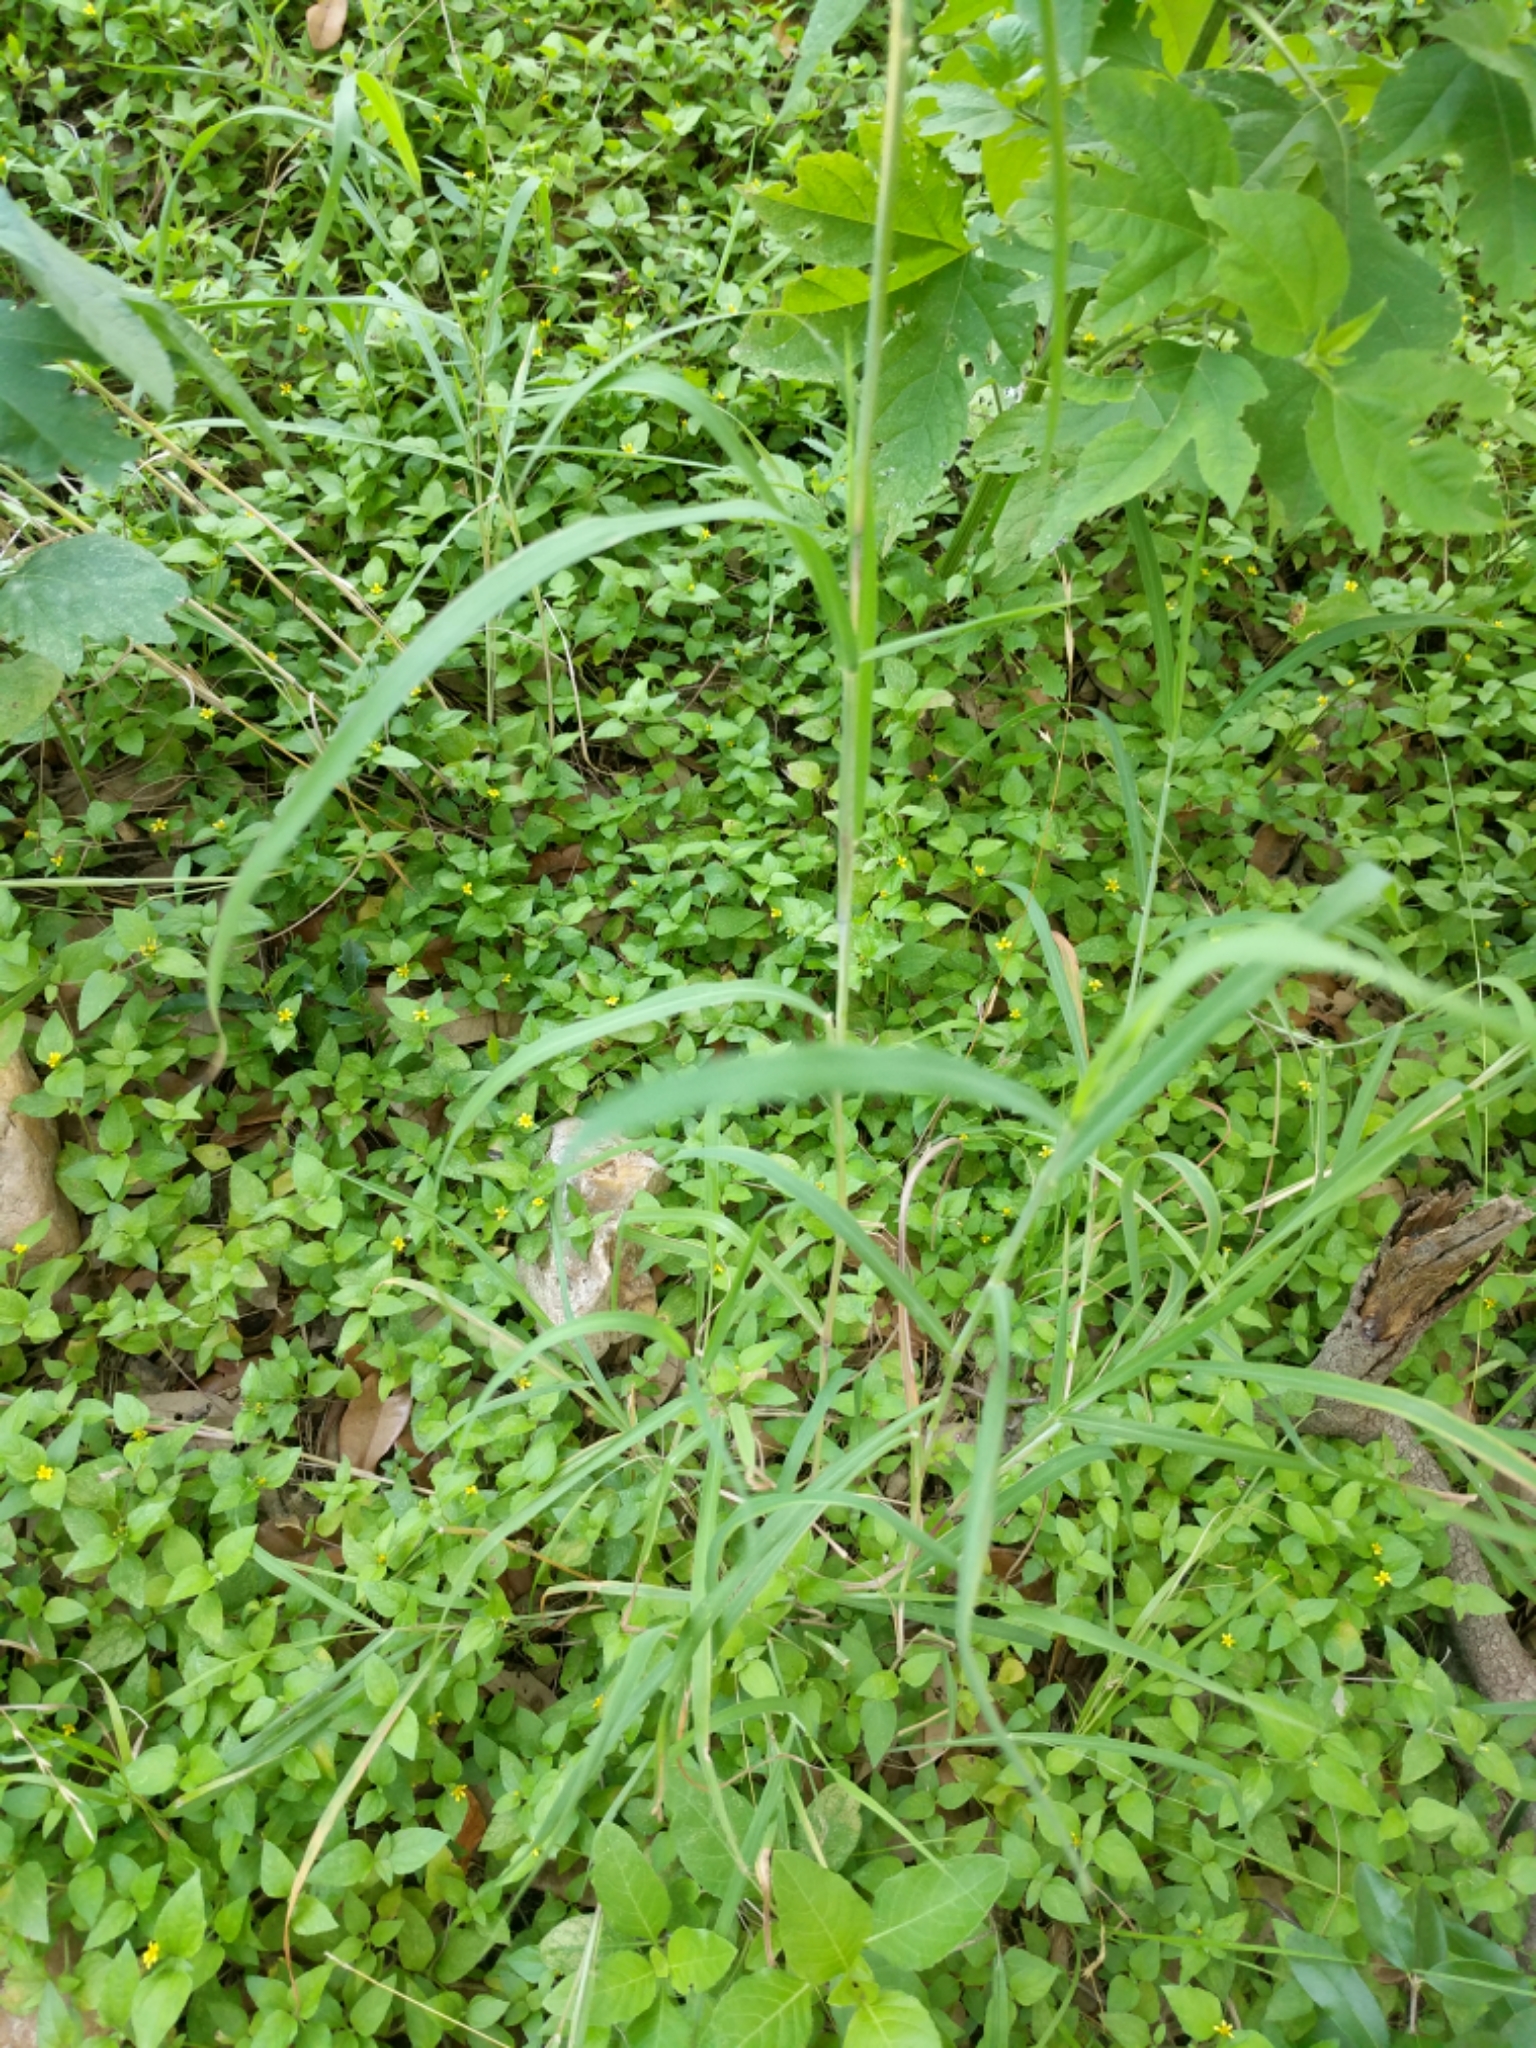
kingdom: Plantae
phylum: Tracheophyta
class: Liliopsida
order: Poales
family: Poaceae
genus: Bothriochloa
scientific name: Bothriochloa torreyana
